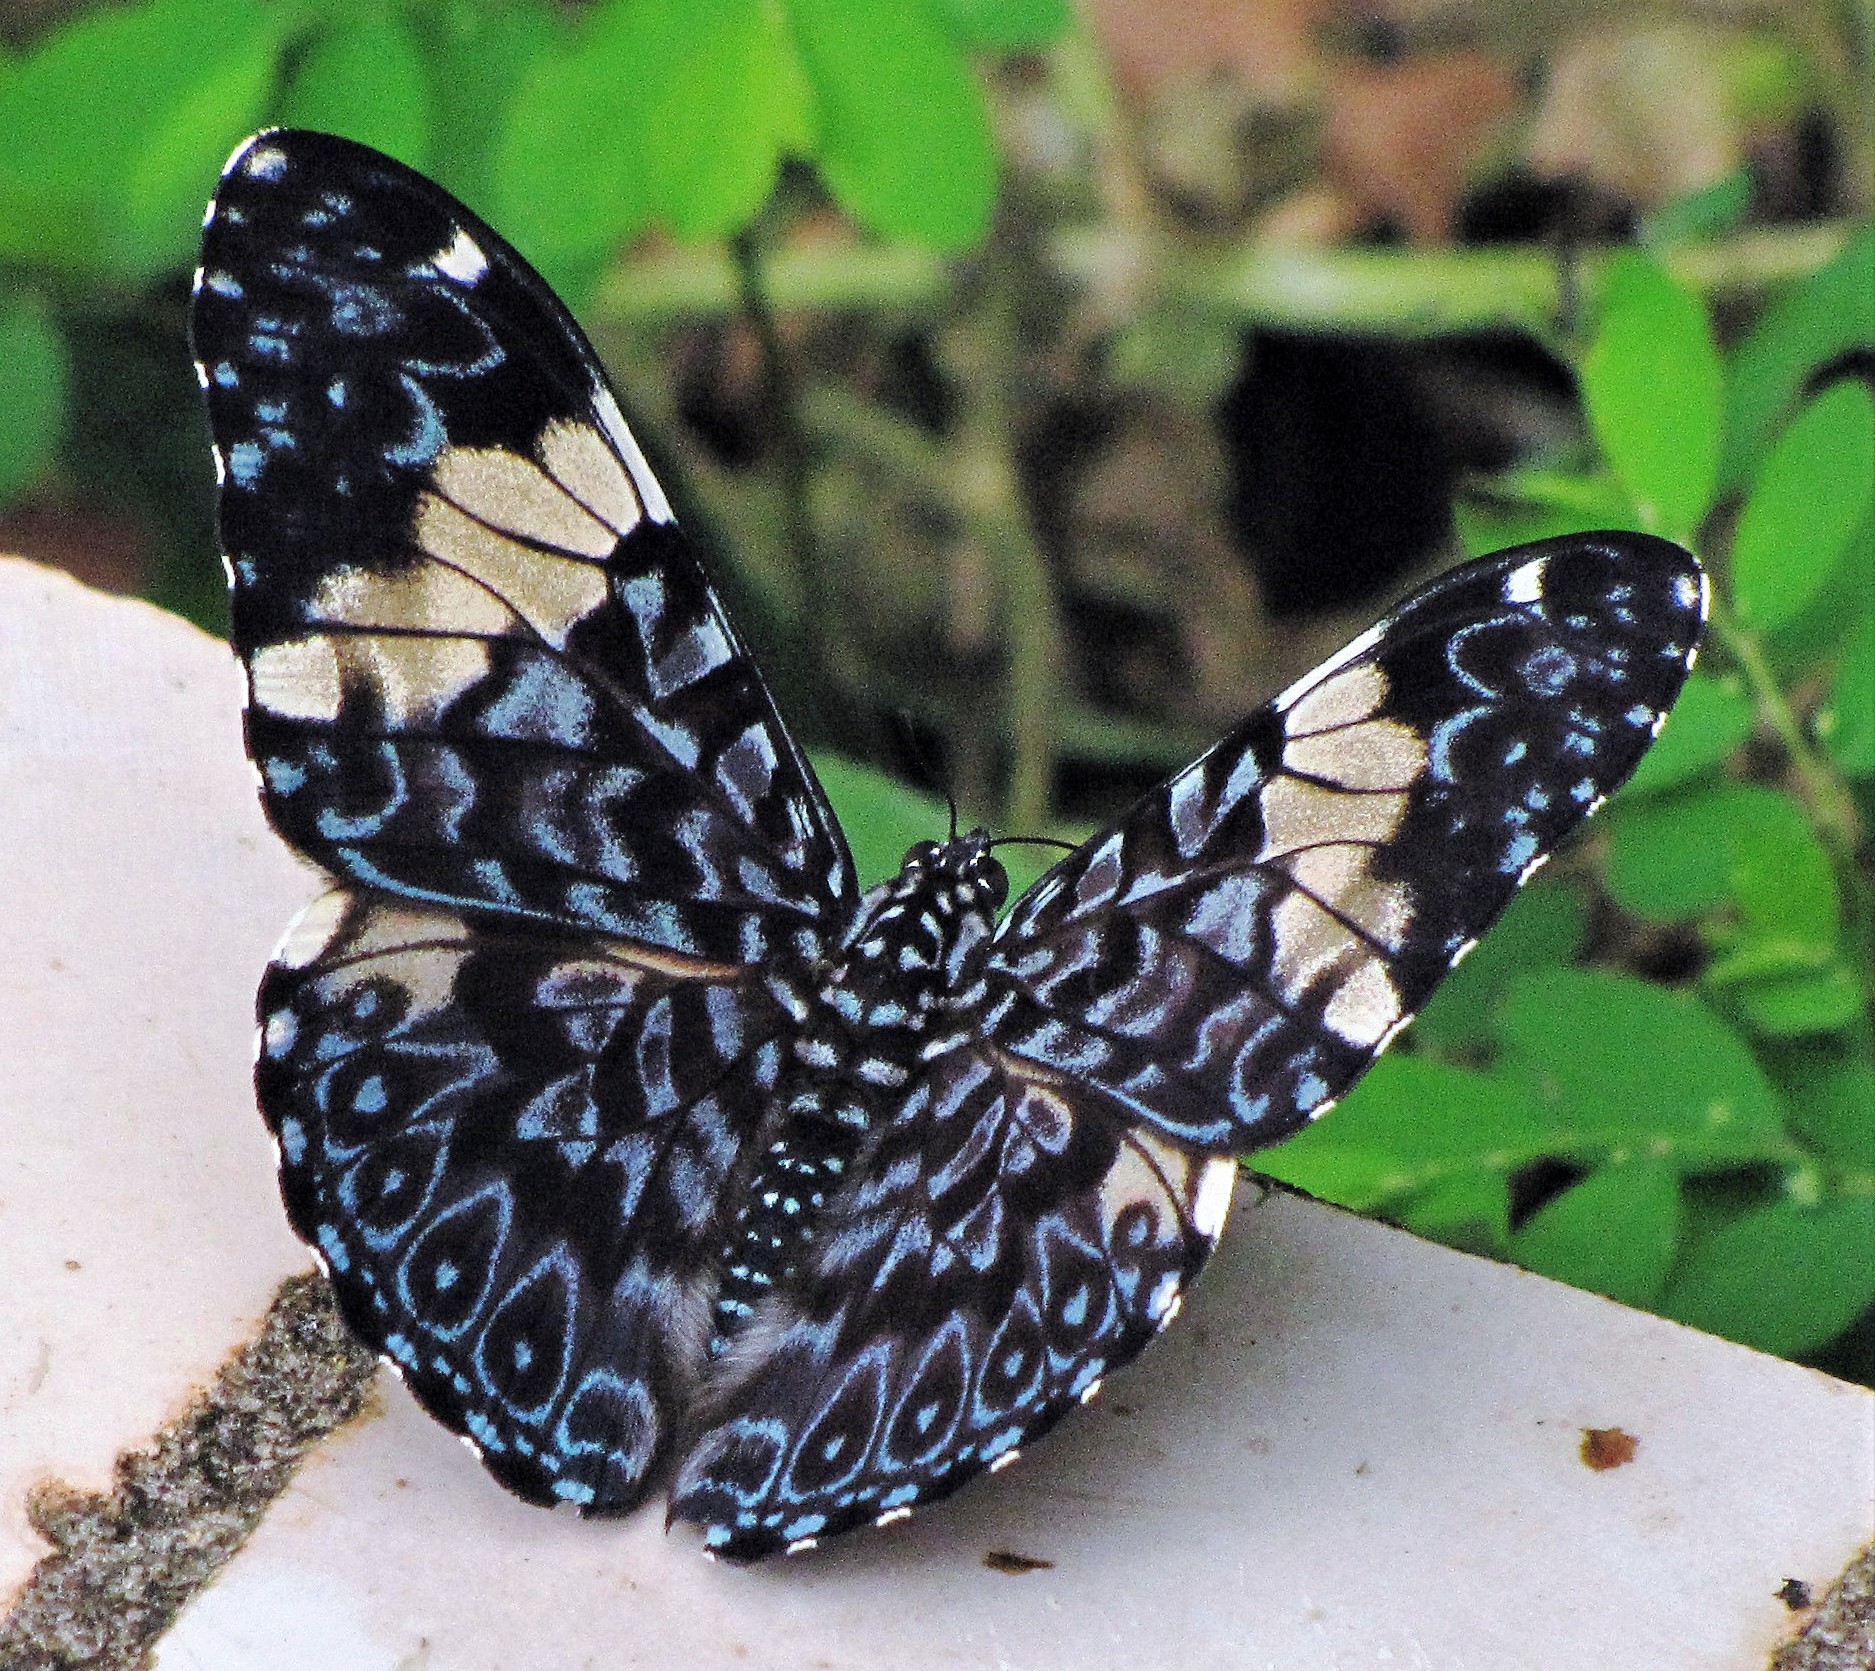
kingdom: Animalia
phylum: Arthropoda
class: Insecta
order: Lepidoptera
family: Nymphalidae
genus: Hamadryas
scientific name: Hamadryas amphinome
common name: Red cracker
